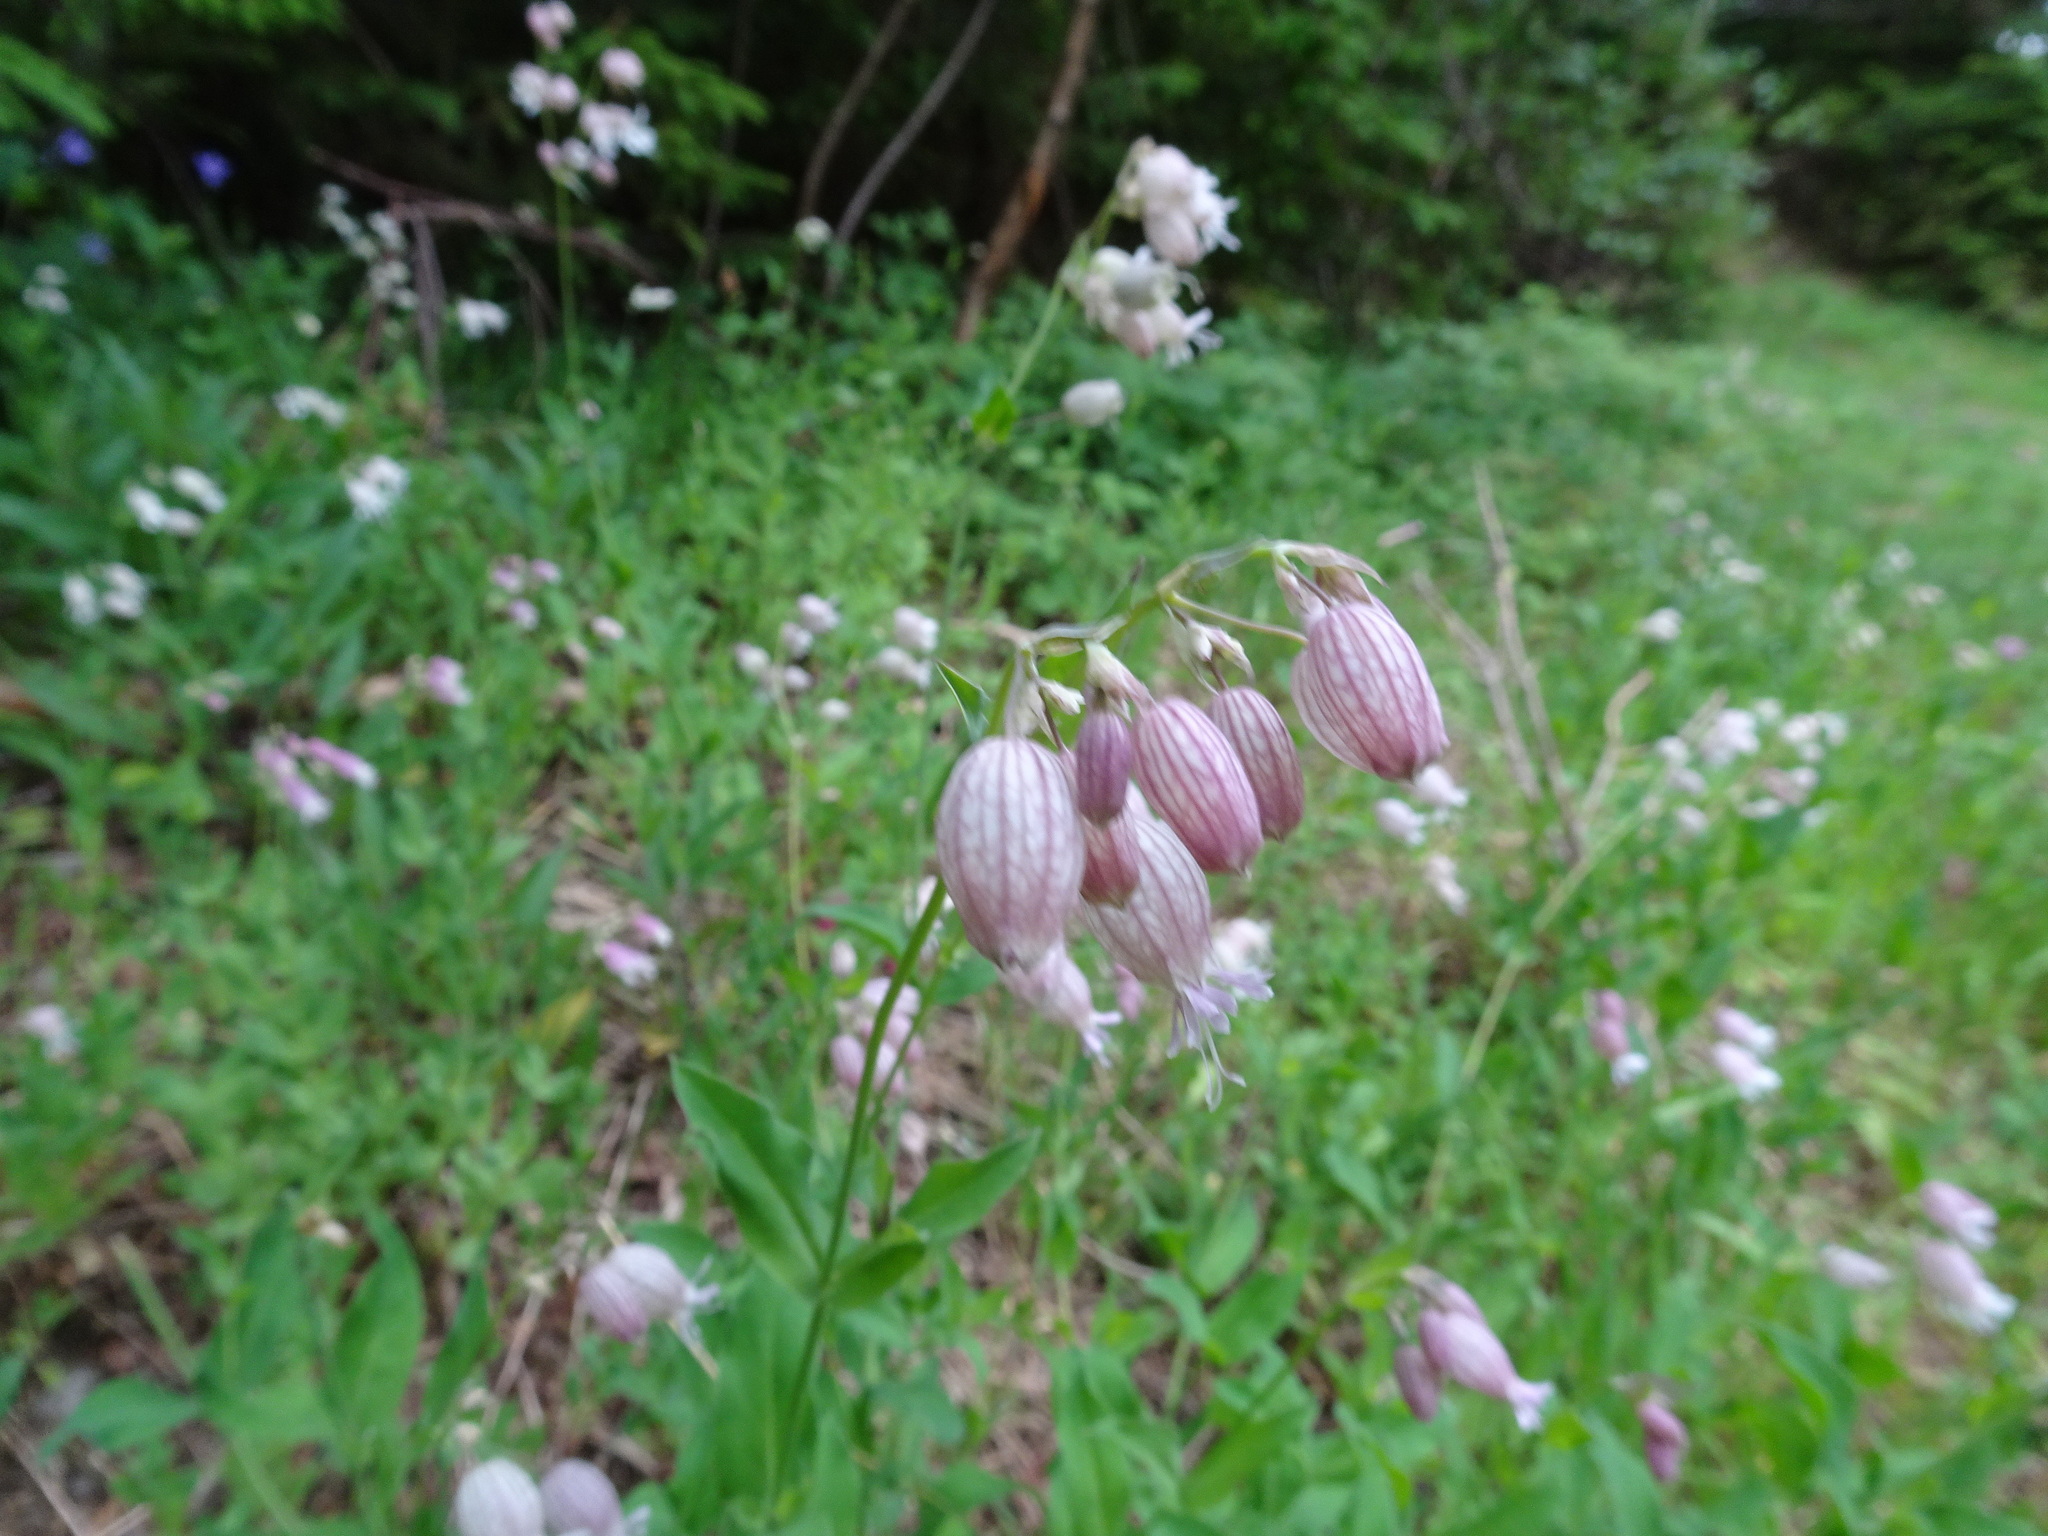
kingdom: Plantae
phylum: Tracheophyta
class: Magnoliopsida
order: Caryophyllales
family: Caryophyllaceae
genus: Silene
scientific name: Silene vulgaris
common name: Bladder campion
